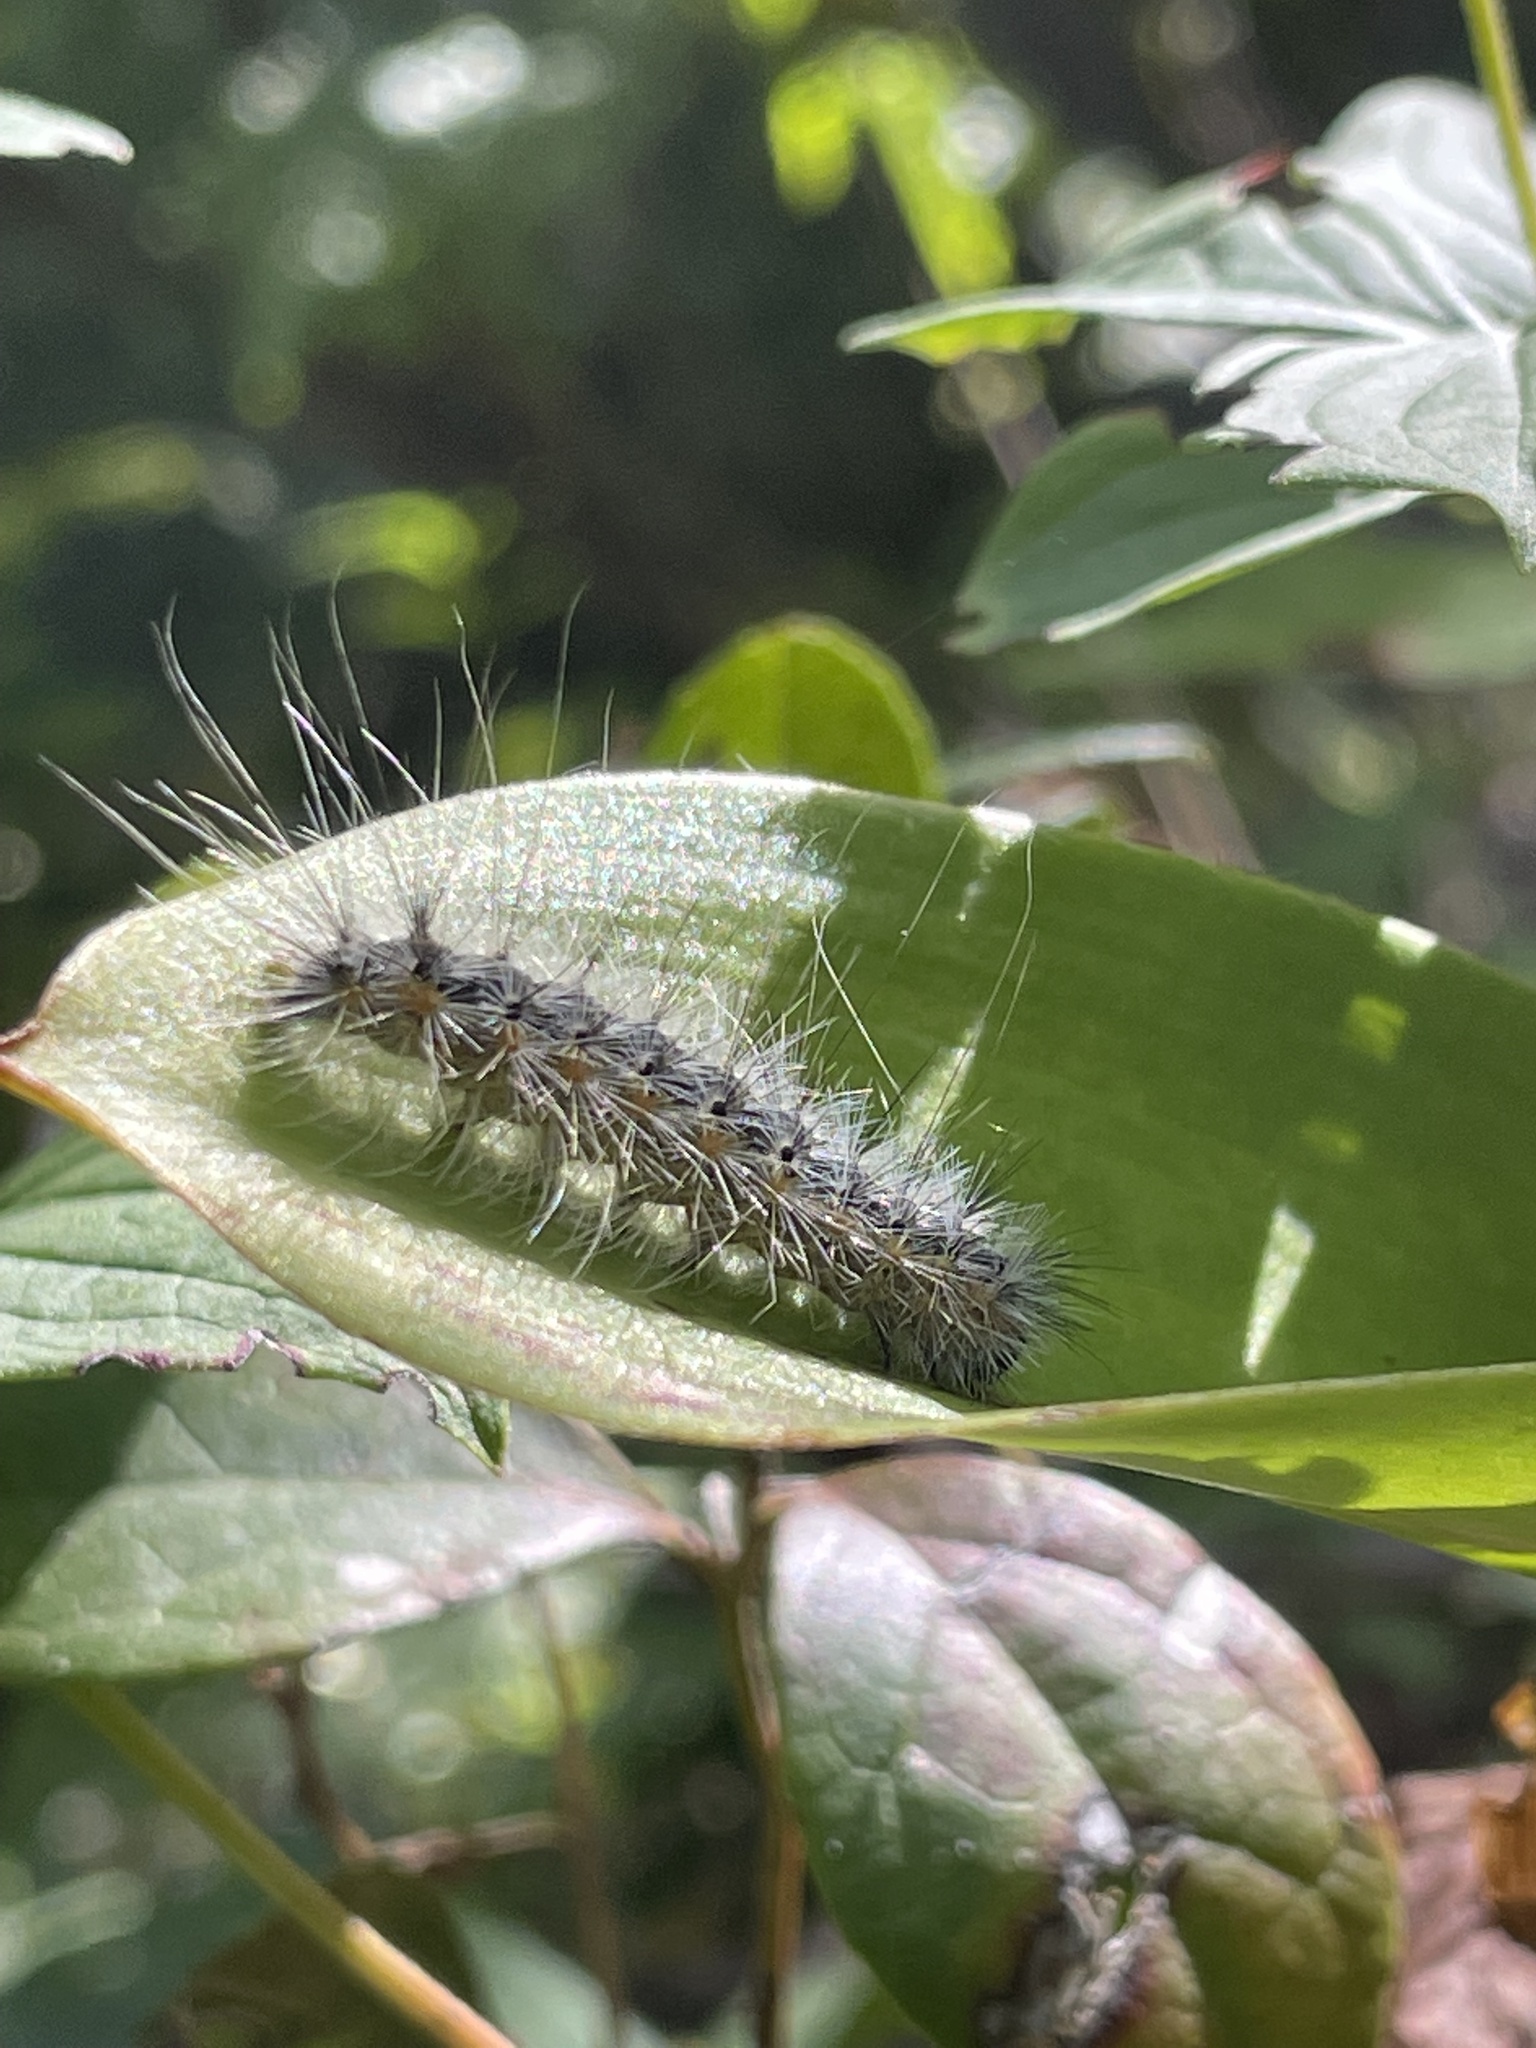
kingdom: Animalia
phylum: Arthropoda
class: Insecta
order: Lepidoptera
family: Erebidae
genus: Hyphantria
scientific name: Hyphantria cunea
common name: American white moth
